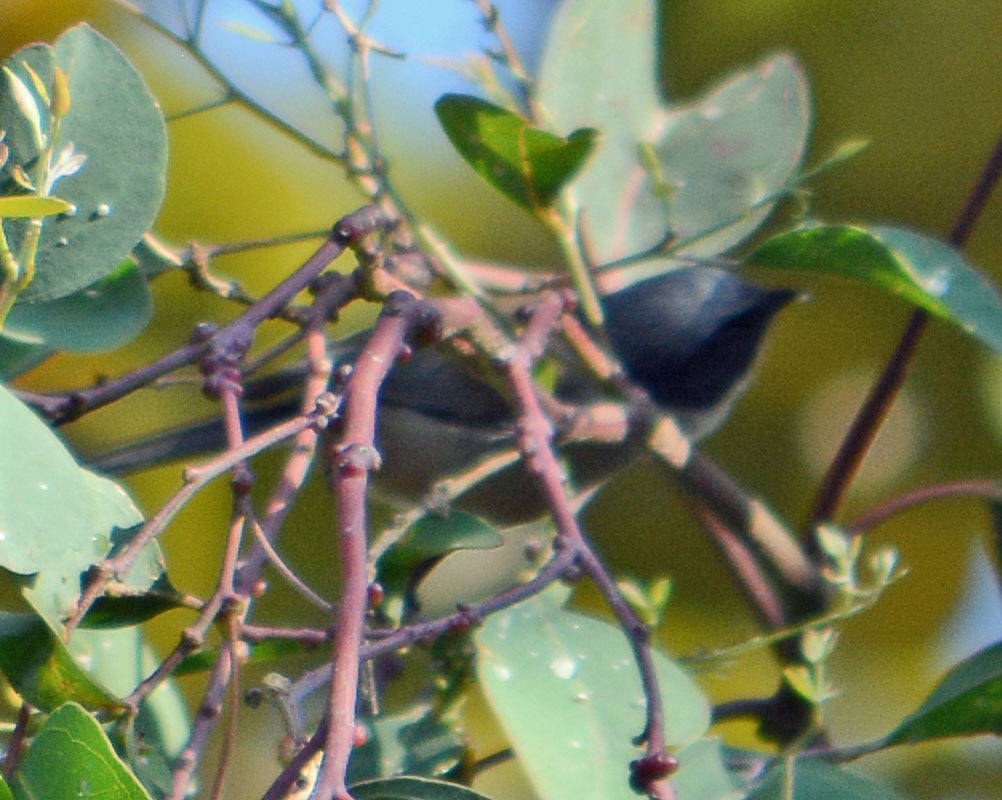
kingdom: Animalia
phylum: Chordata
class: Aves
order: Passeriformes
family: Aegithalidae
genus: Psaltriparus
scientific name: Psaltriparus minimus
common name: American bushtit
